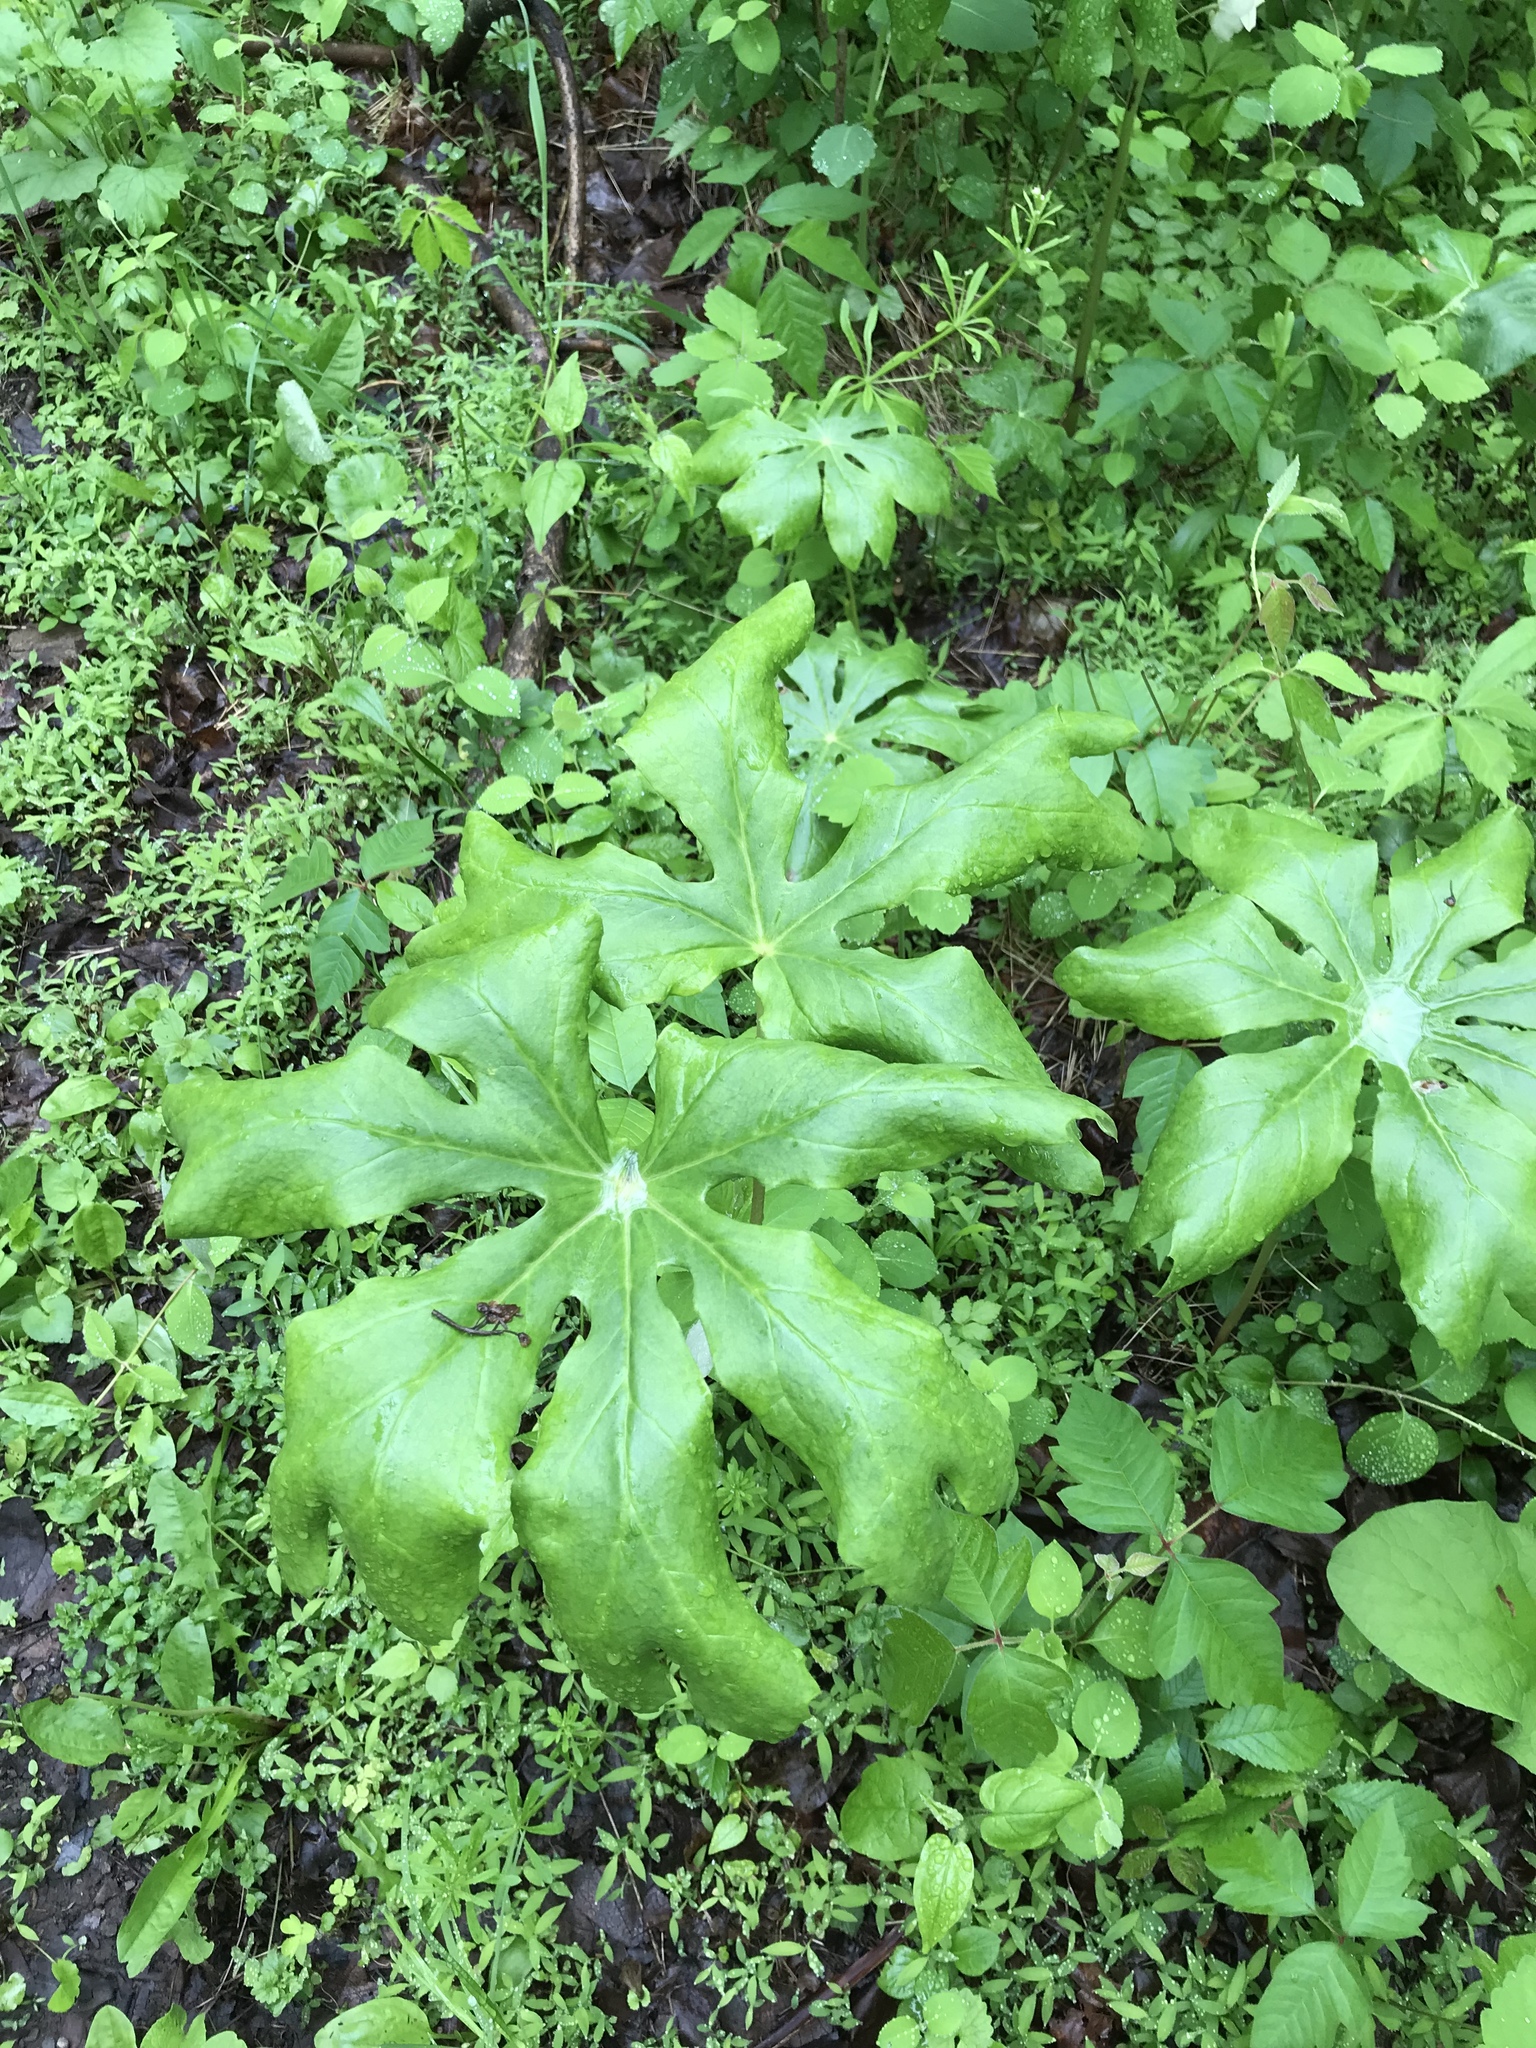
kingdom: Plantae
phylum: Tracheophyta
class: Magnoliopsida
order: Ranunculales
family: Berberidaceae
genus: Podophyllum
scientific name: Podophyllum peltatum
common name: Wild mandrake
